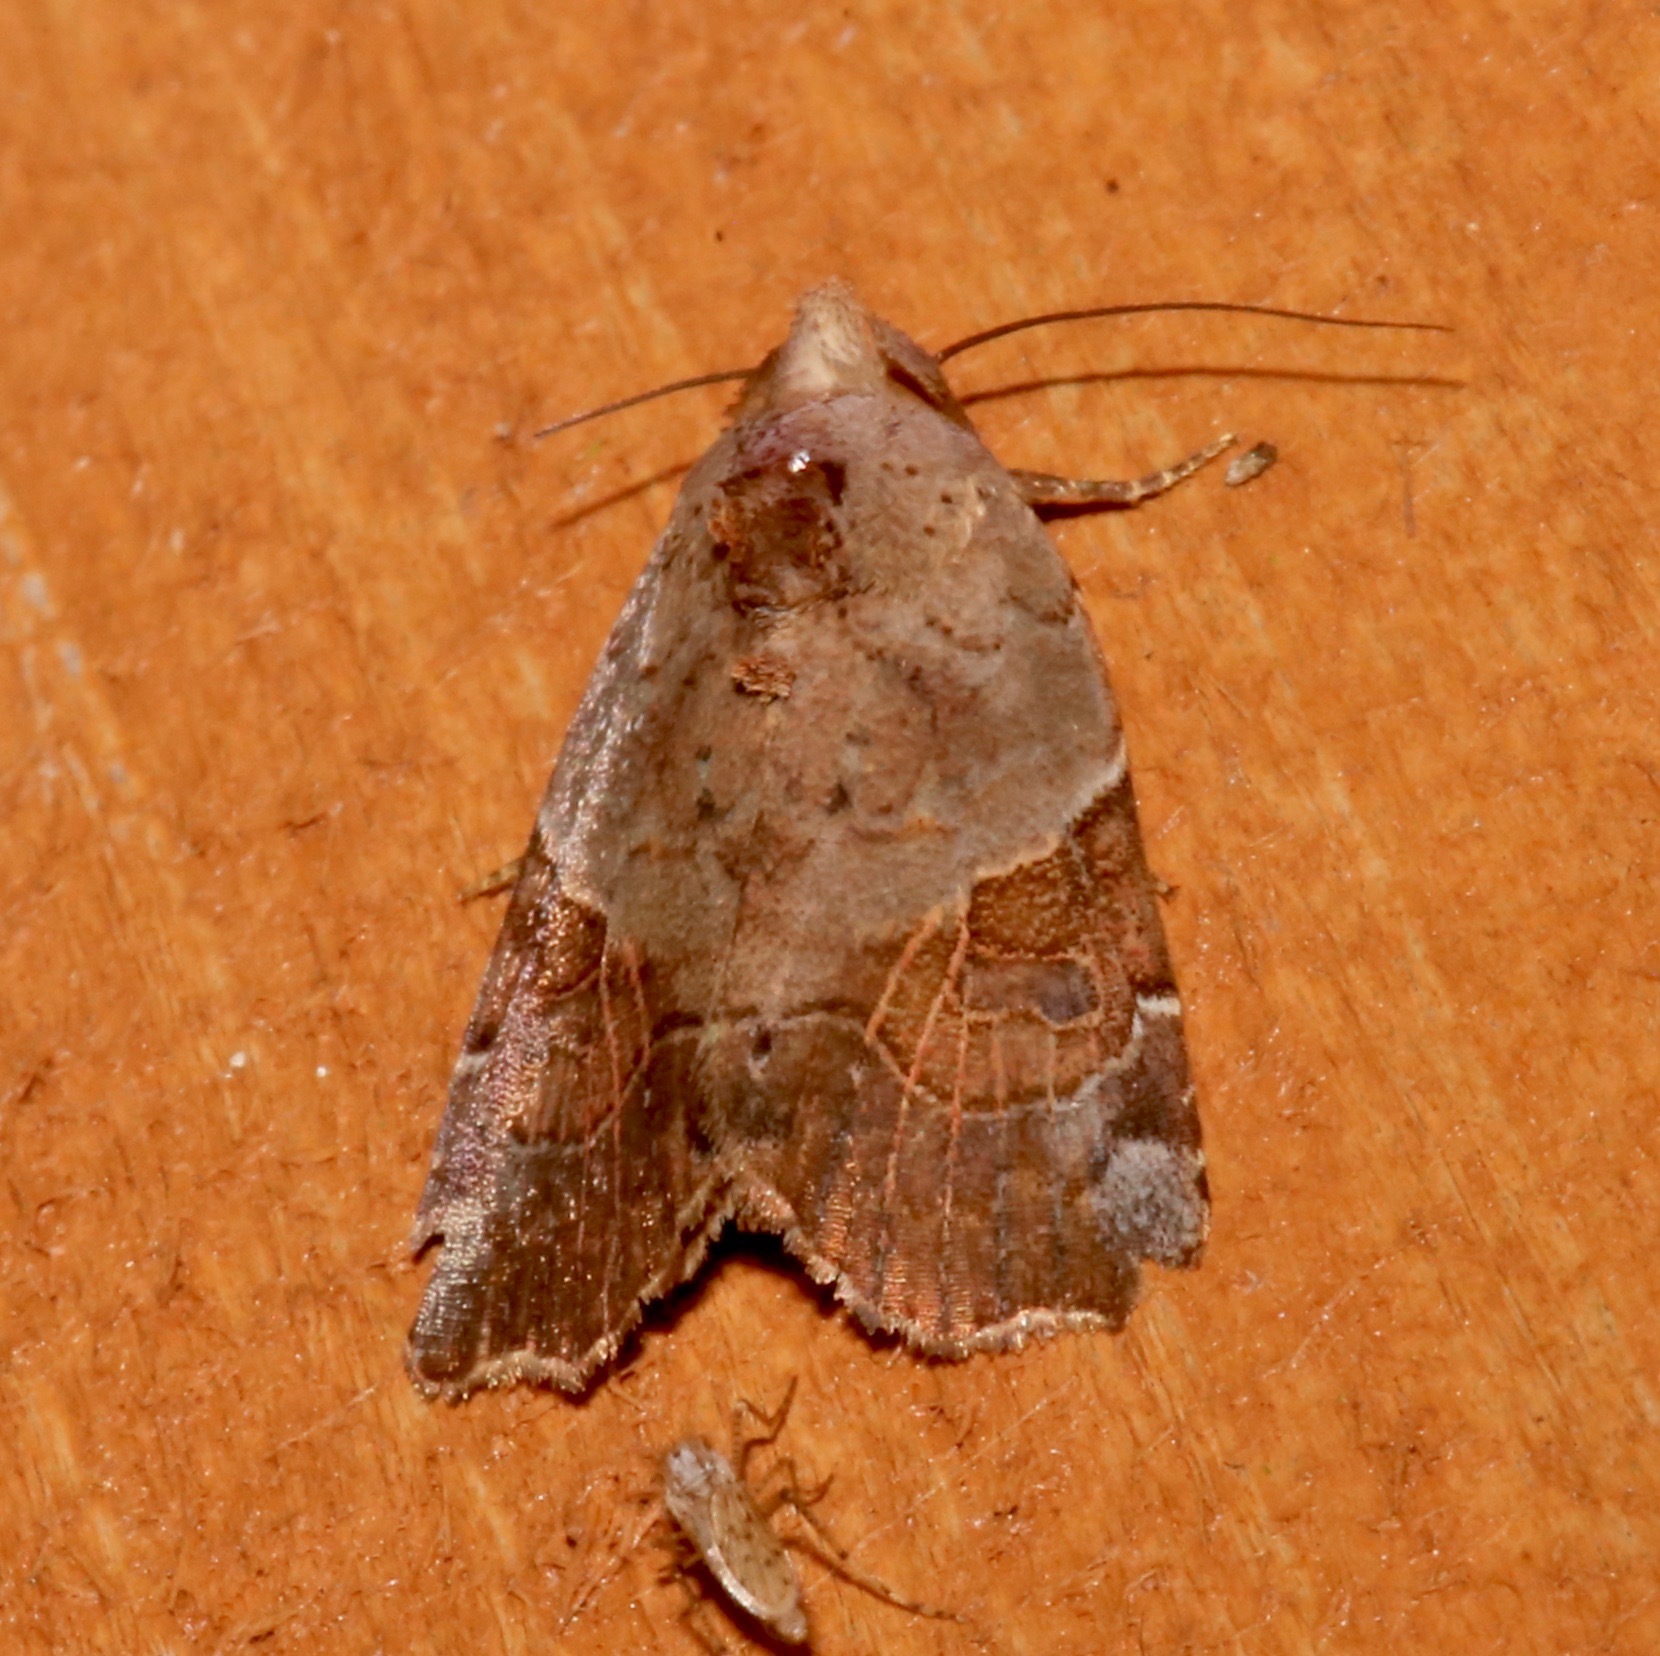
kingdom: Animalia
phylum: Arthropoda
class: Insecta
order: Lepidoptera
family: Noctuidae
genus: Gonodes
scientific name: Gonodes liquida
